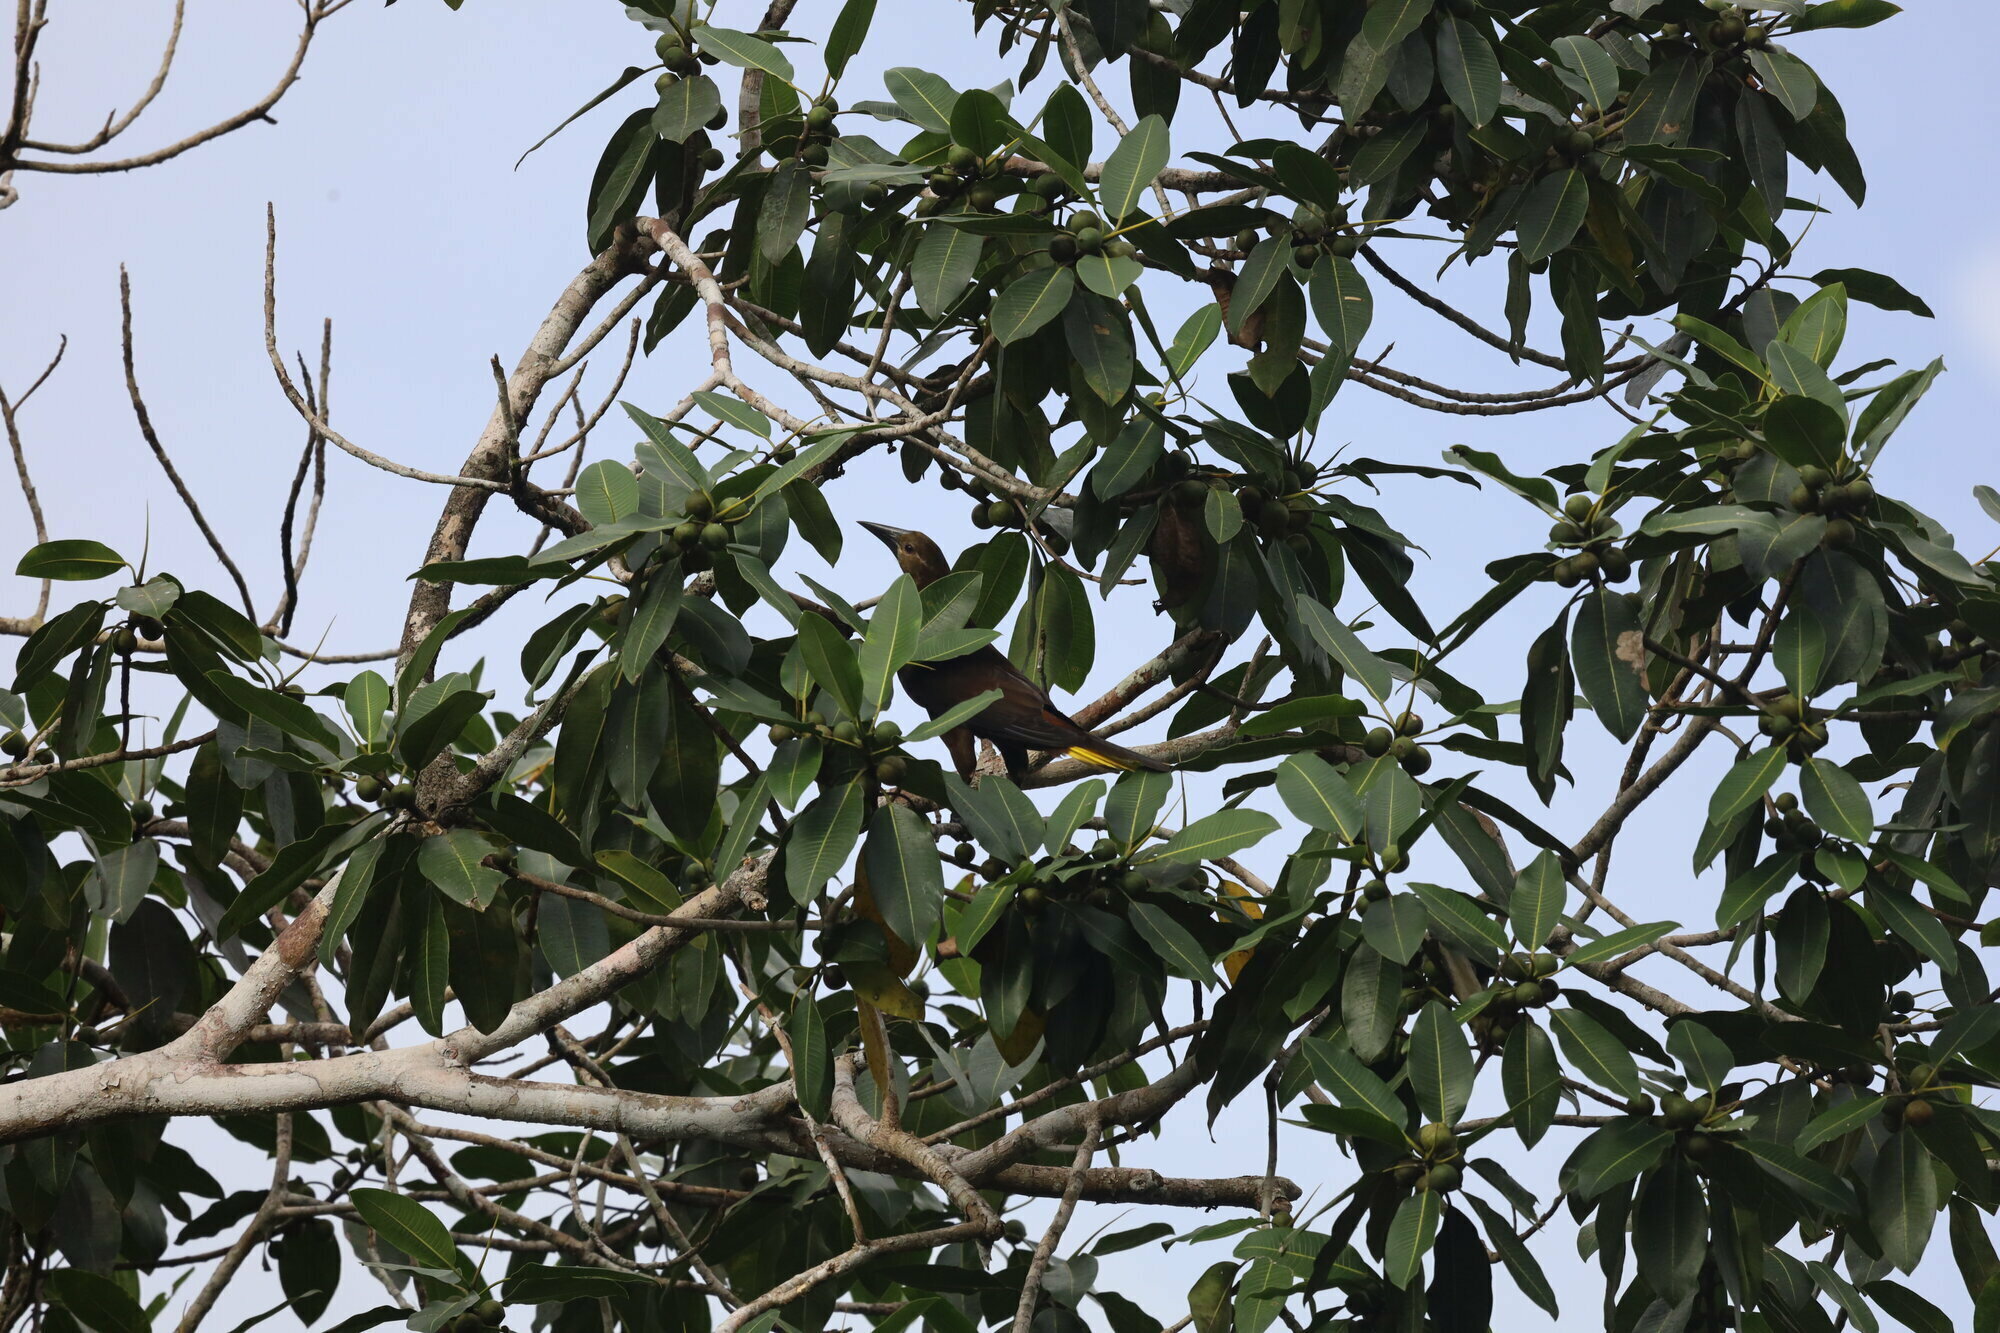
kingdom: Animalia
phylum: Chordata
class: Aves
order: Passeriformes
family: Icteridae
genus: Psarocolius
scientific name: Psarocolius angustifrons
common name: Russet-backed oropendola
